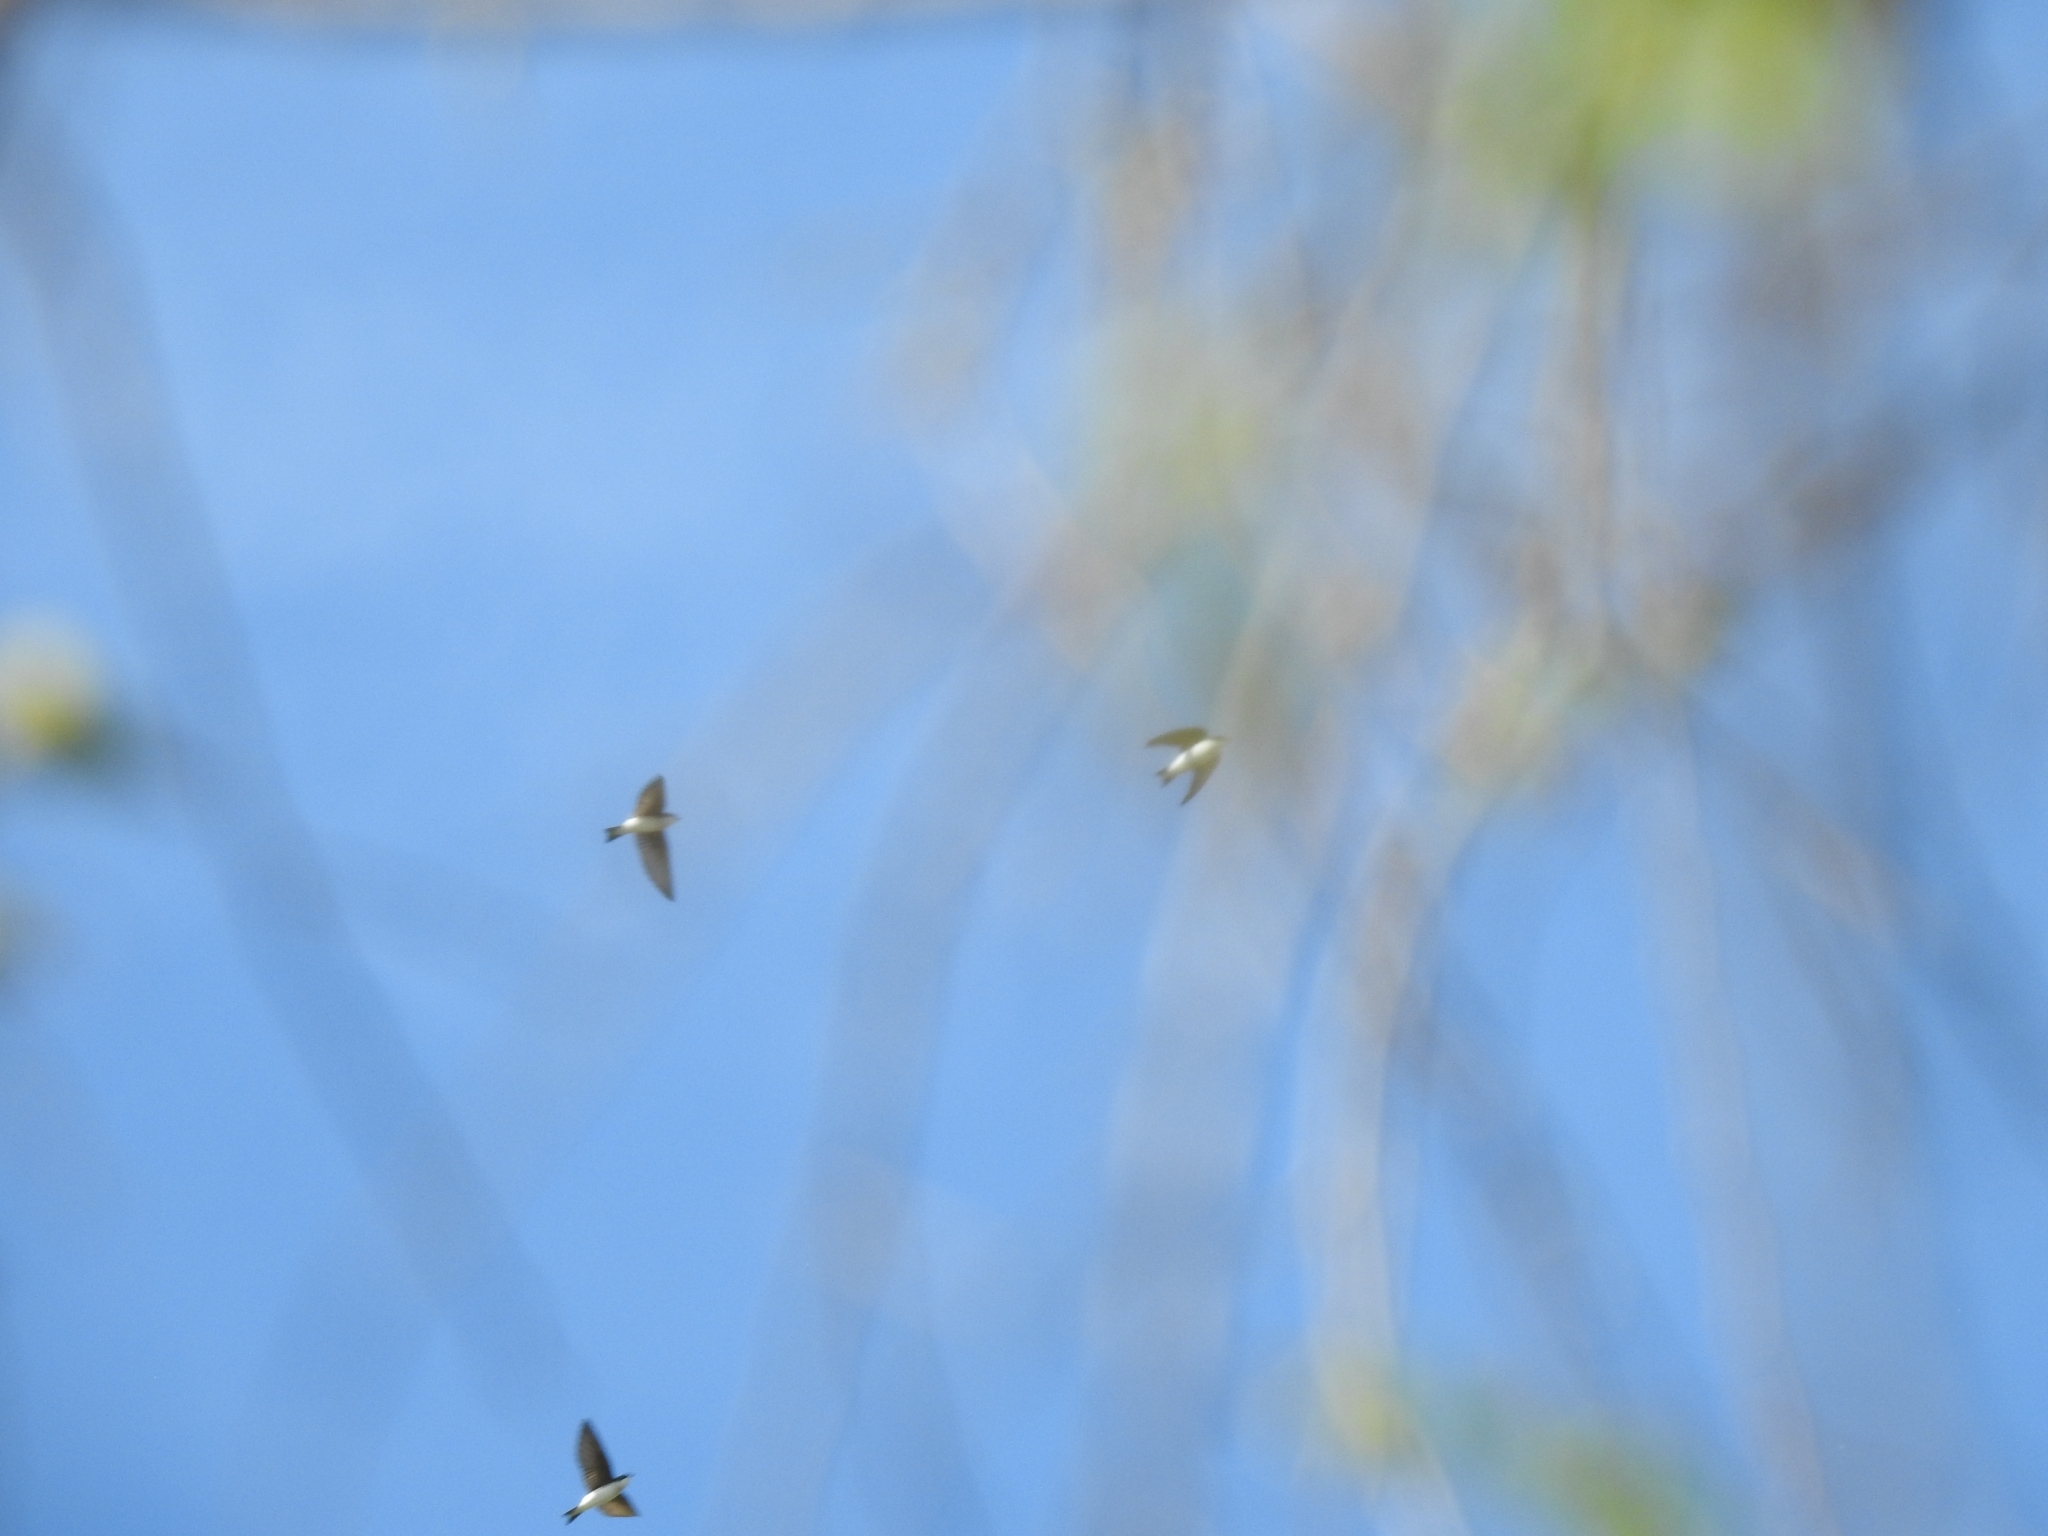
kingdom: Animalia
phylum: Chordata
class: Aves
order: Passeriformes
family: Hirundinidae
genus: Tachycineta
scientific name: Tachycineta bicolor
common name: Tree swallow
